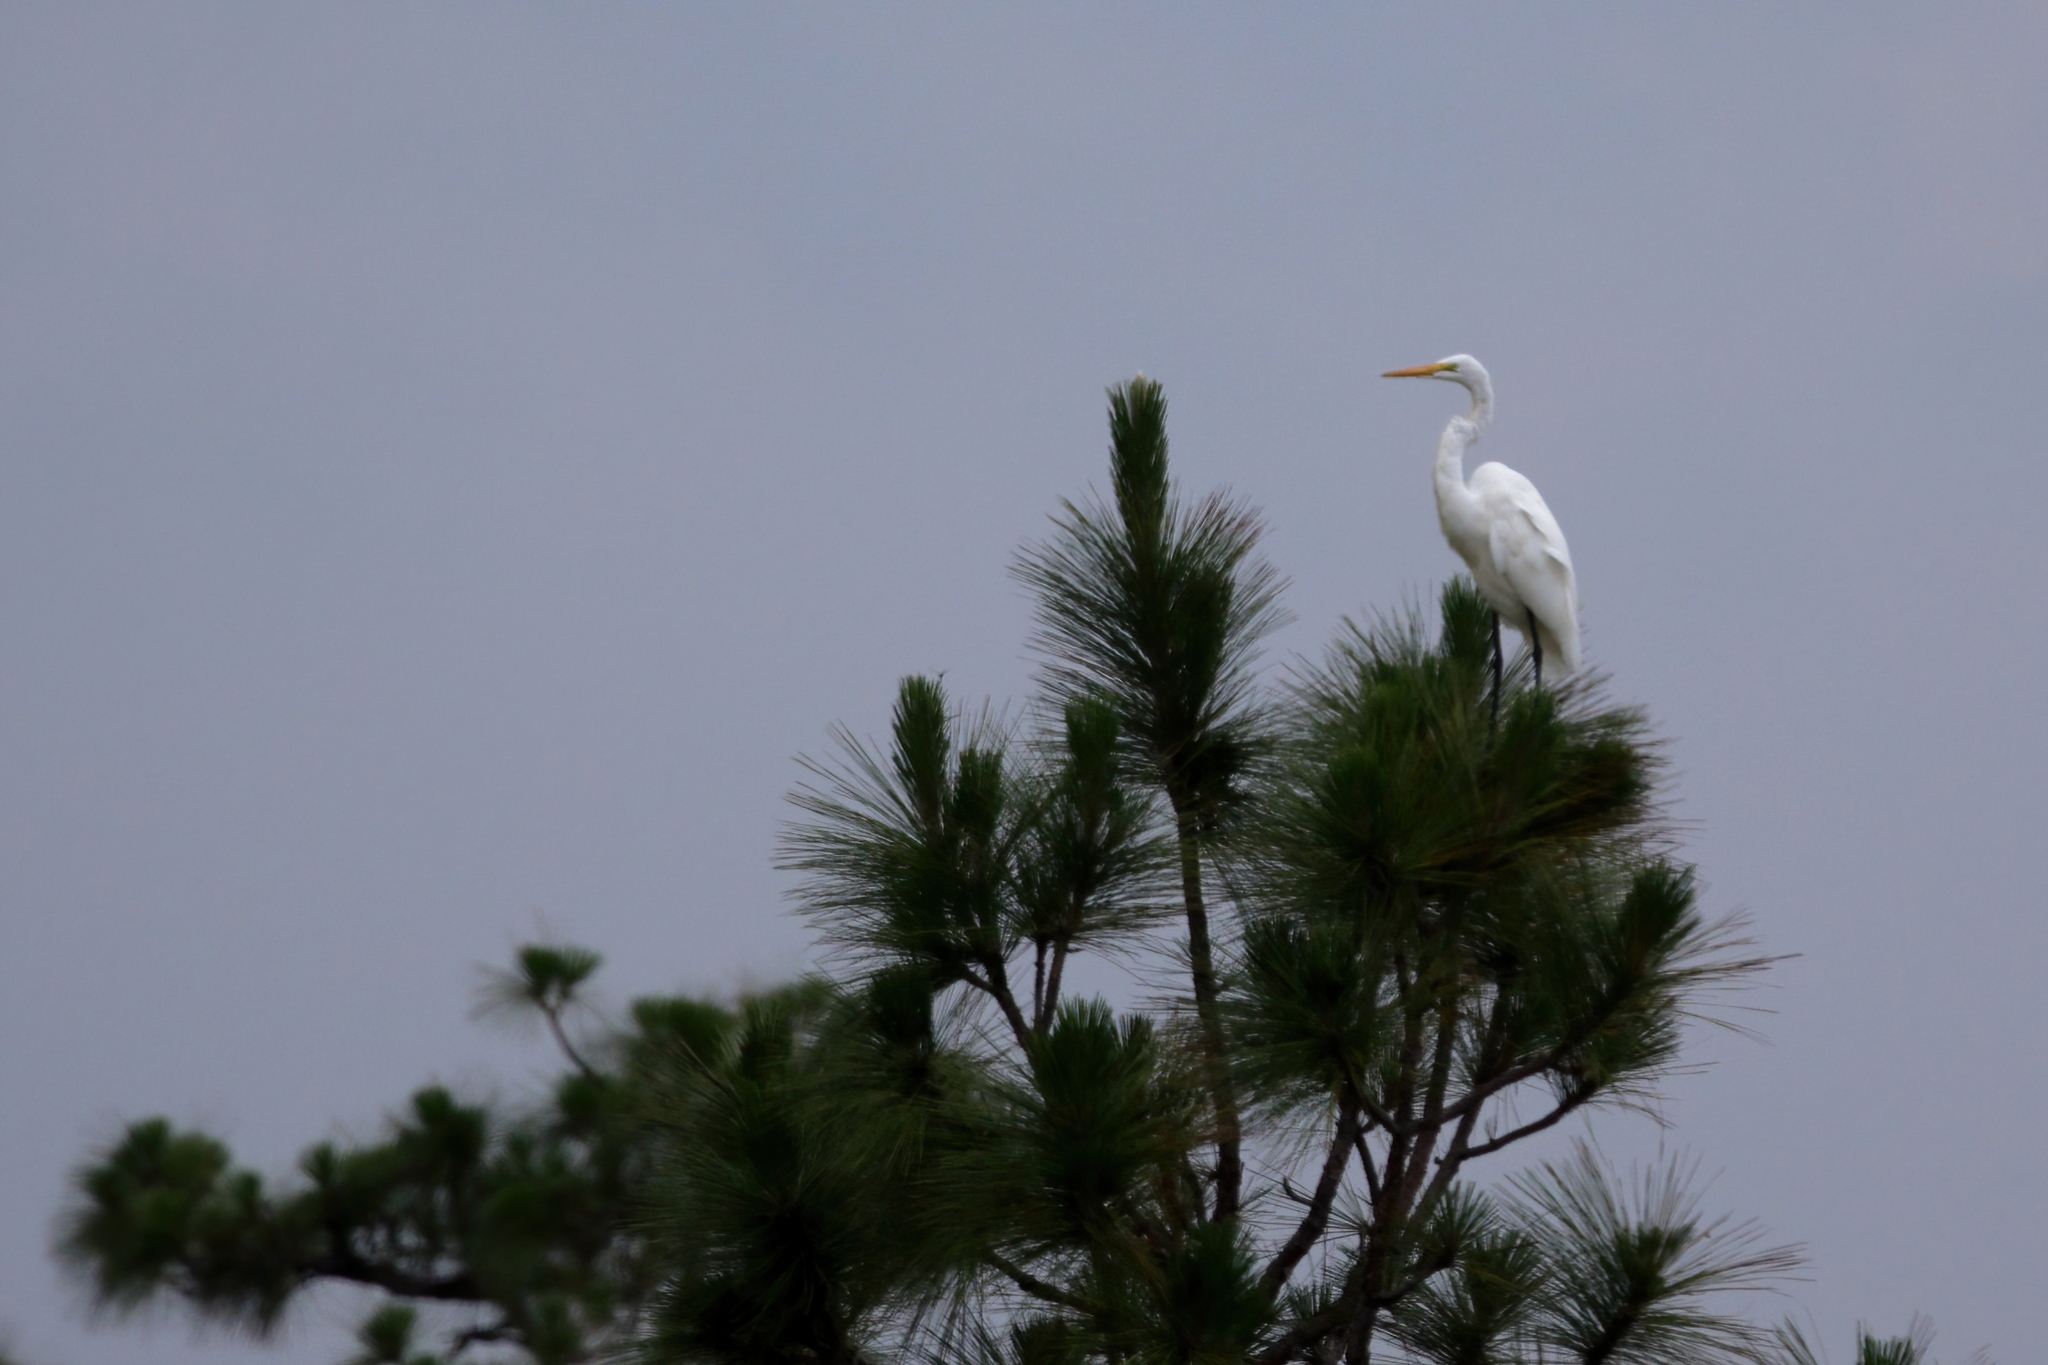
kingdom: Animalia
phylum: Chordata
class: Aves
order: Pelecaniformes
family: Ardeidae
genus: Ardea
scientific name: Ardea alba
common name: Great egret
